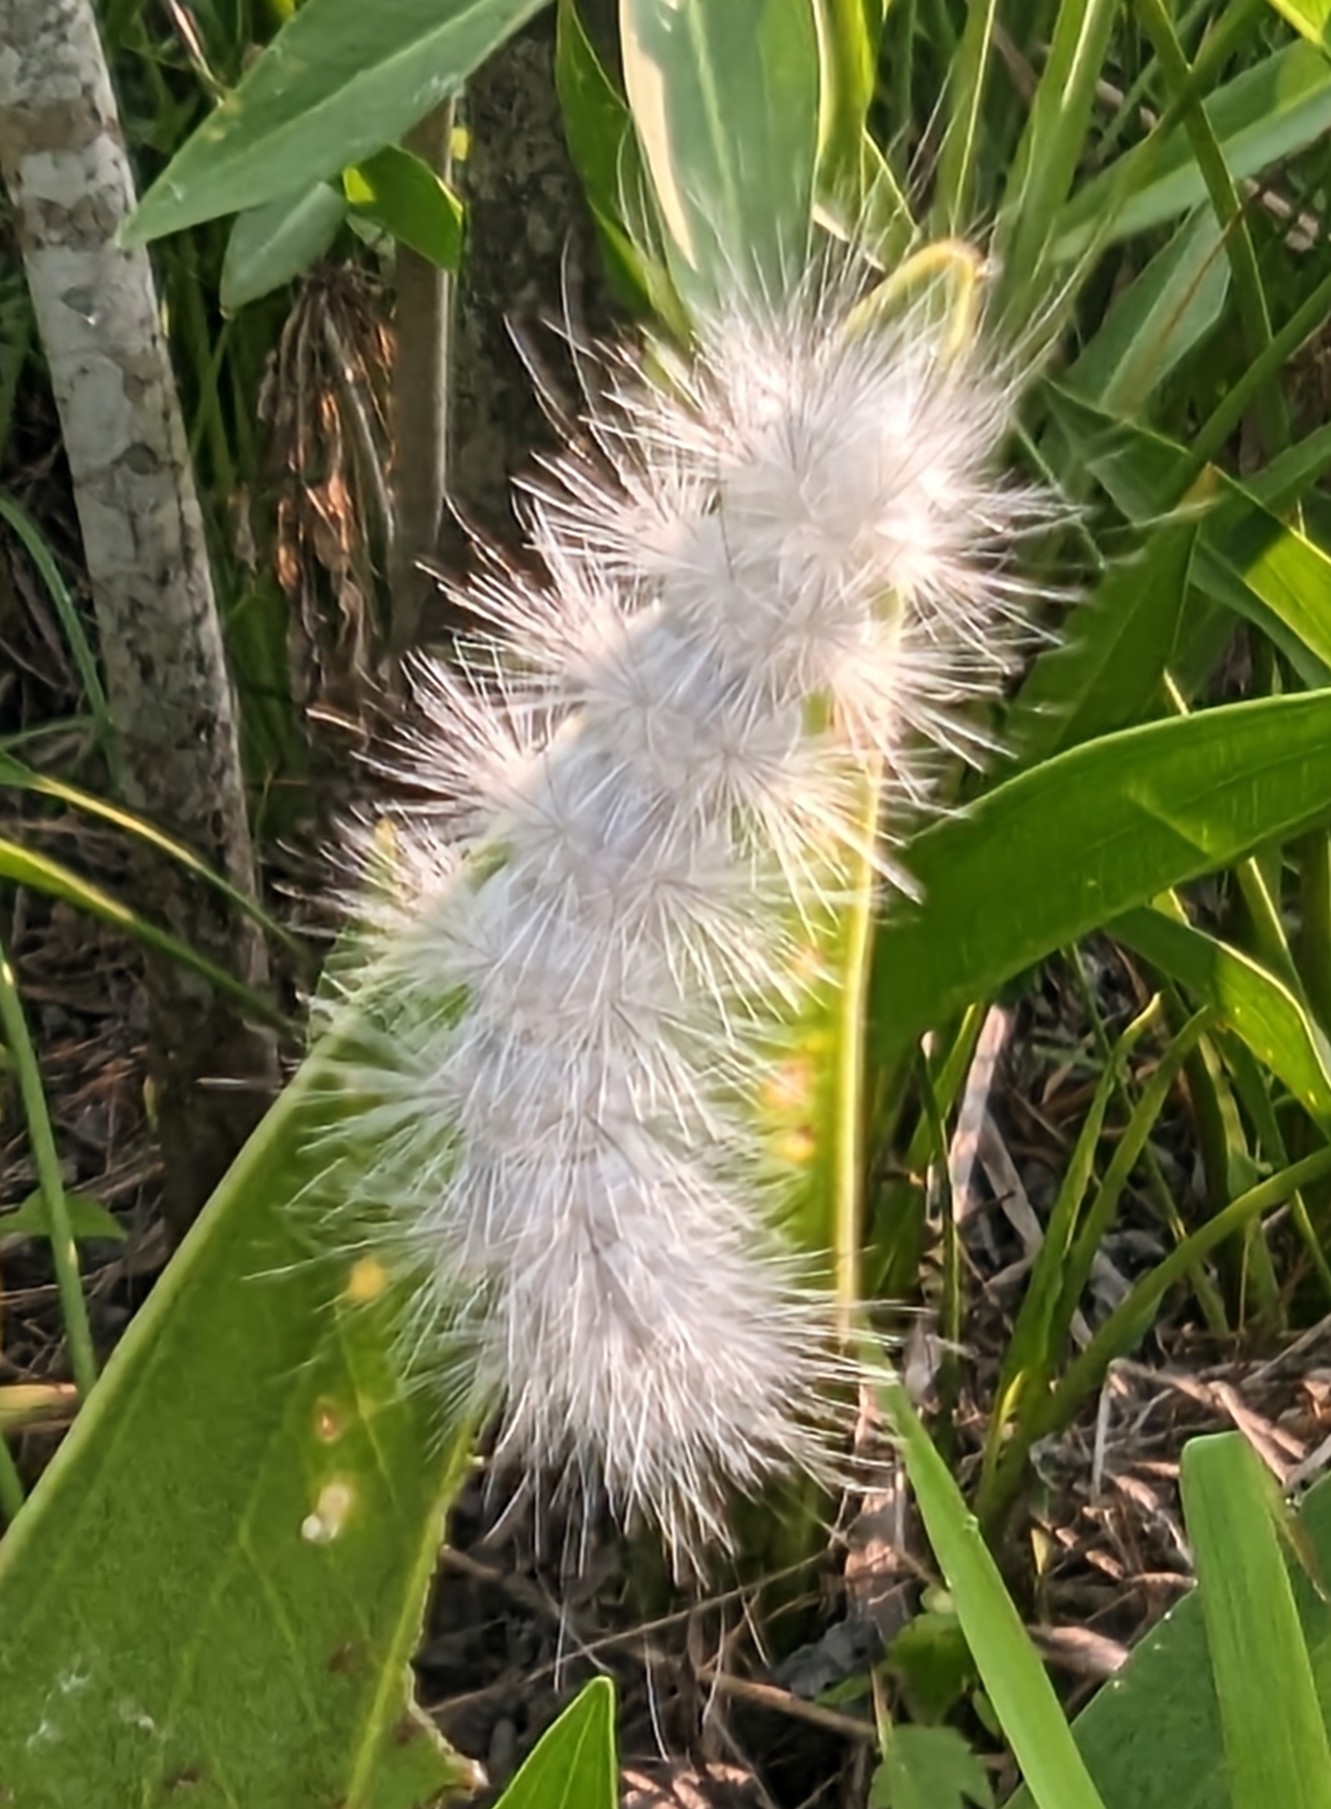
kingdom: Animalia
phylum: Arthropoda
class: Insecta
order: Lepidoptera
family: Erebidae
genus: Spilosoma
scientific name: Spilosoma virginica
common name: Virginia tiger moth
